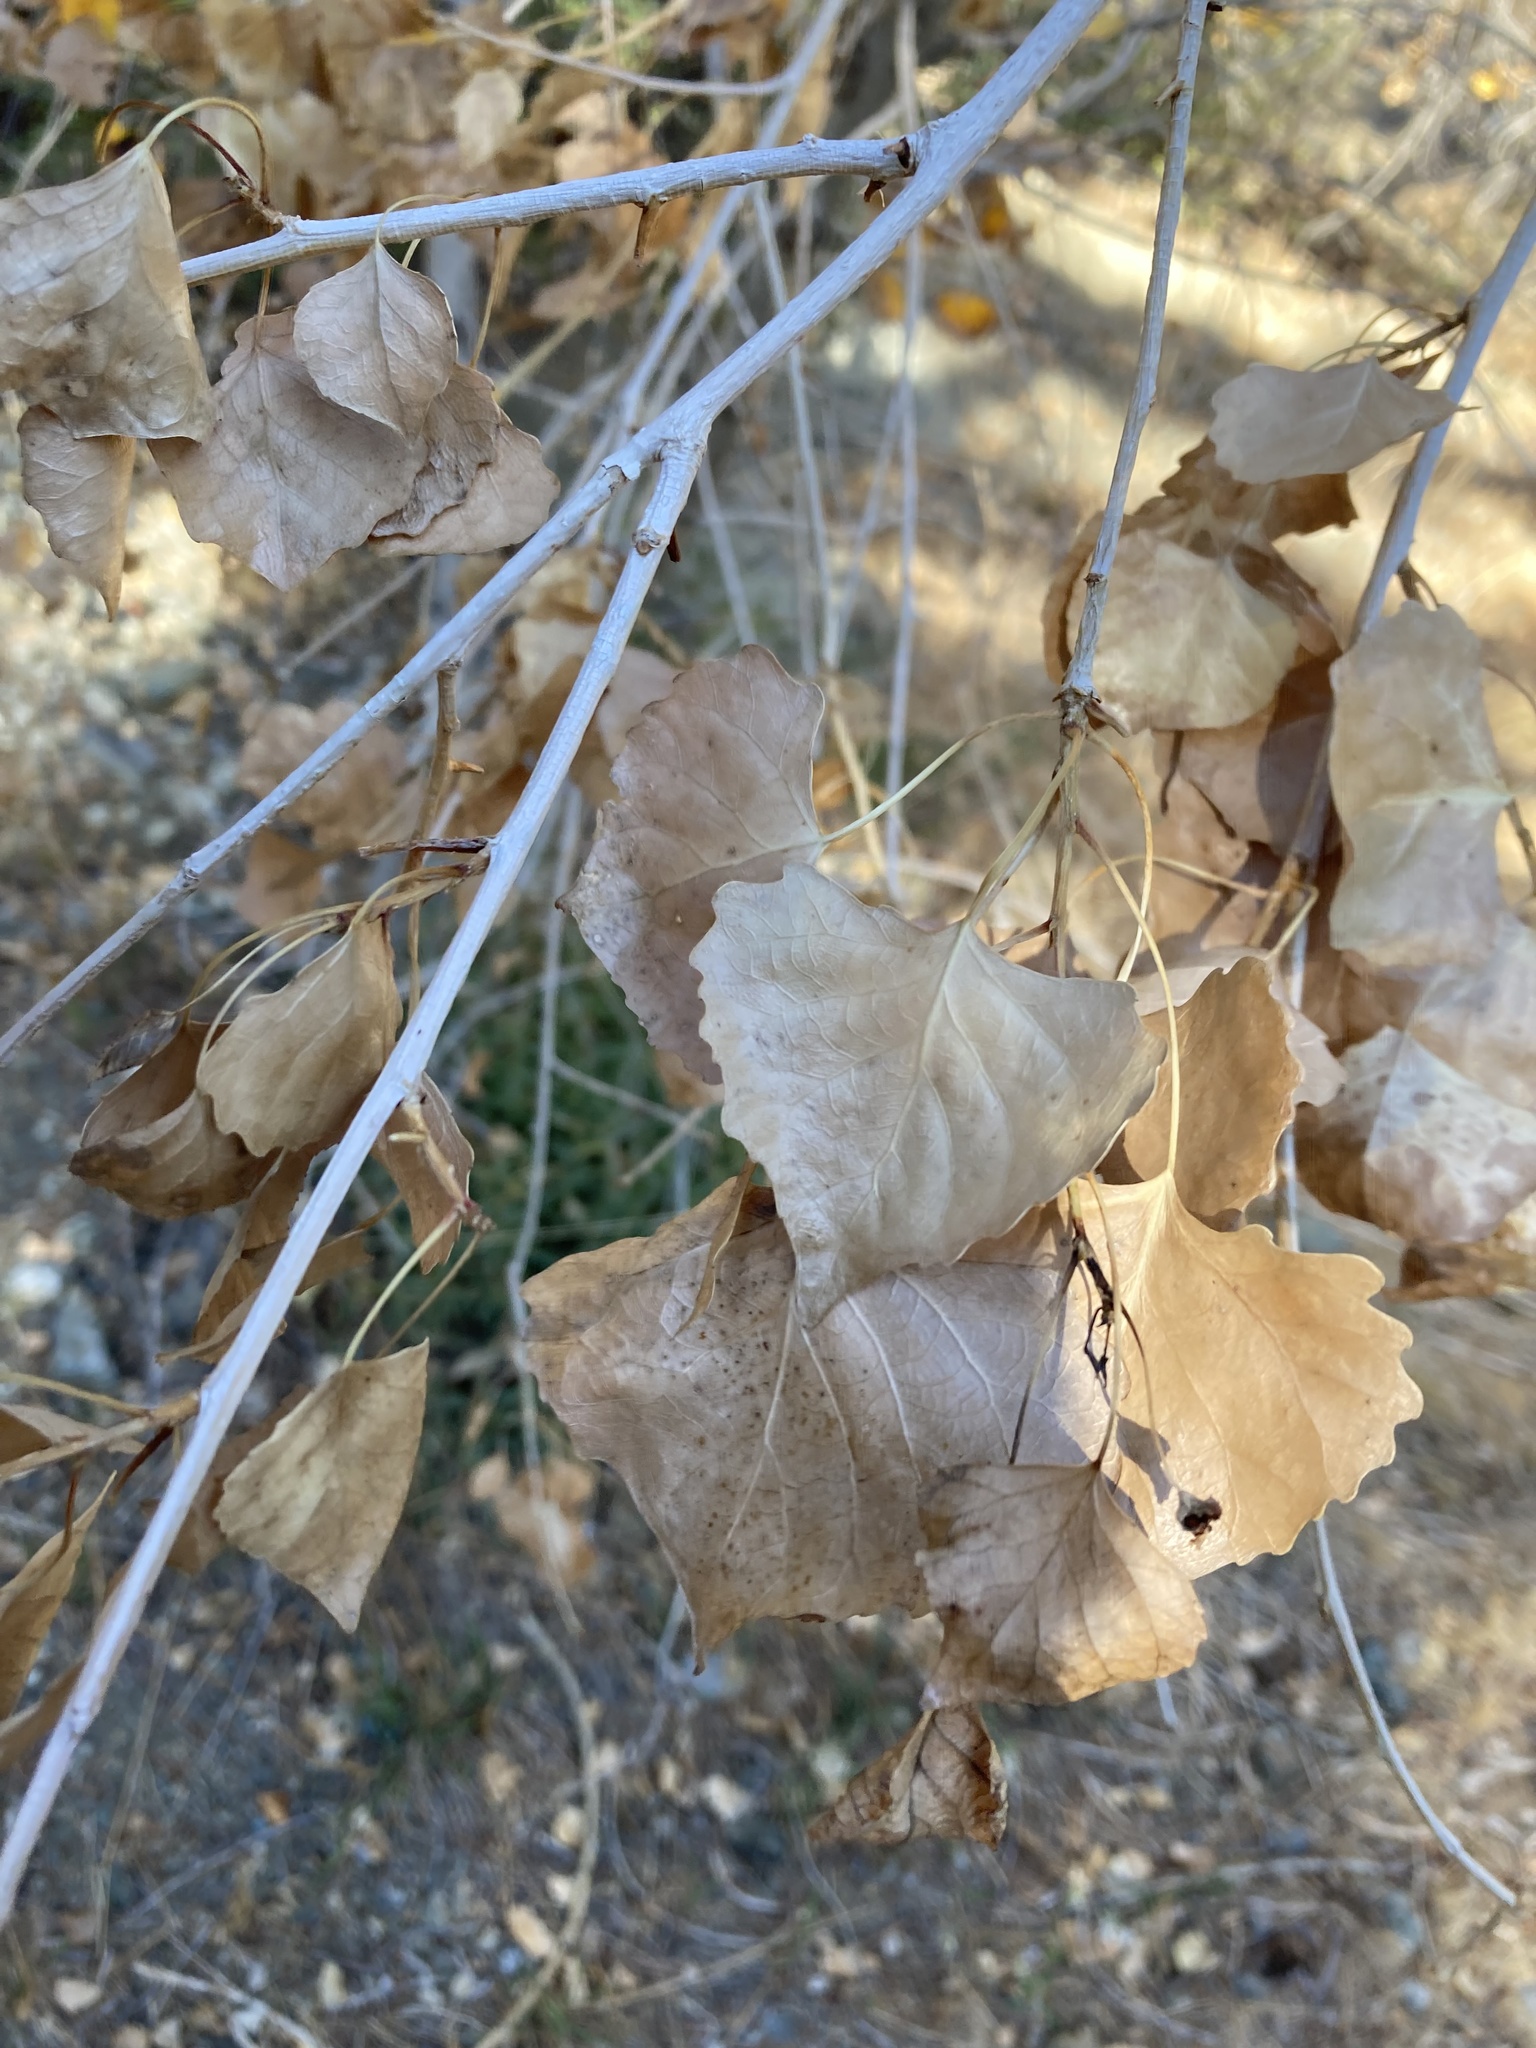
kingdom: Plantae
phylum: Tracheophyta
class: Magnoliopsida
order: Malpighiales
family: Salicaceae
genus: Populus
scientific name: Populus fremontii
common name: Fremont's cottonwood
